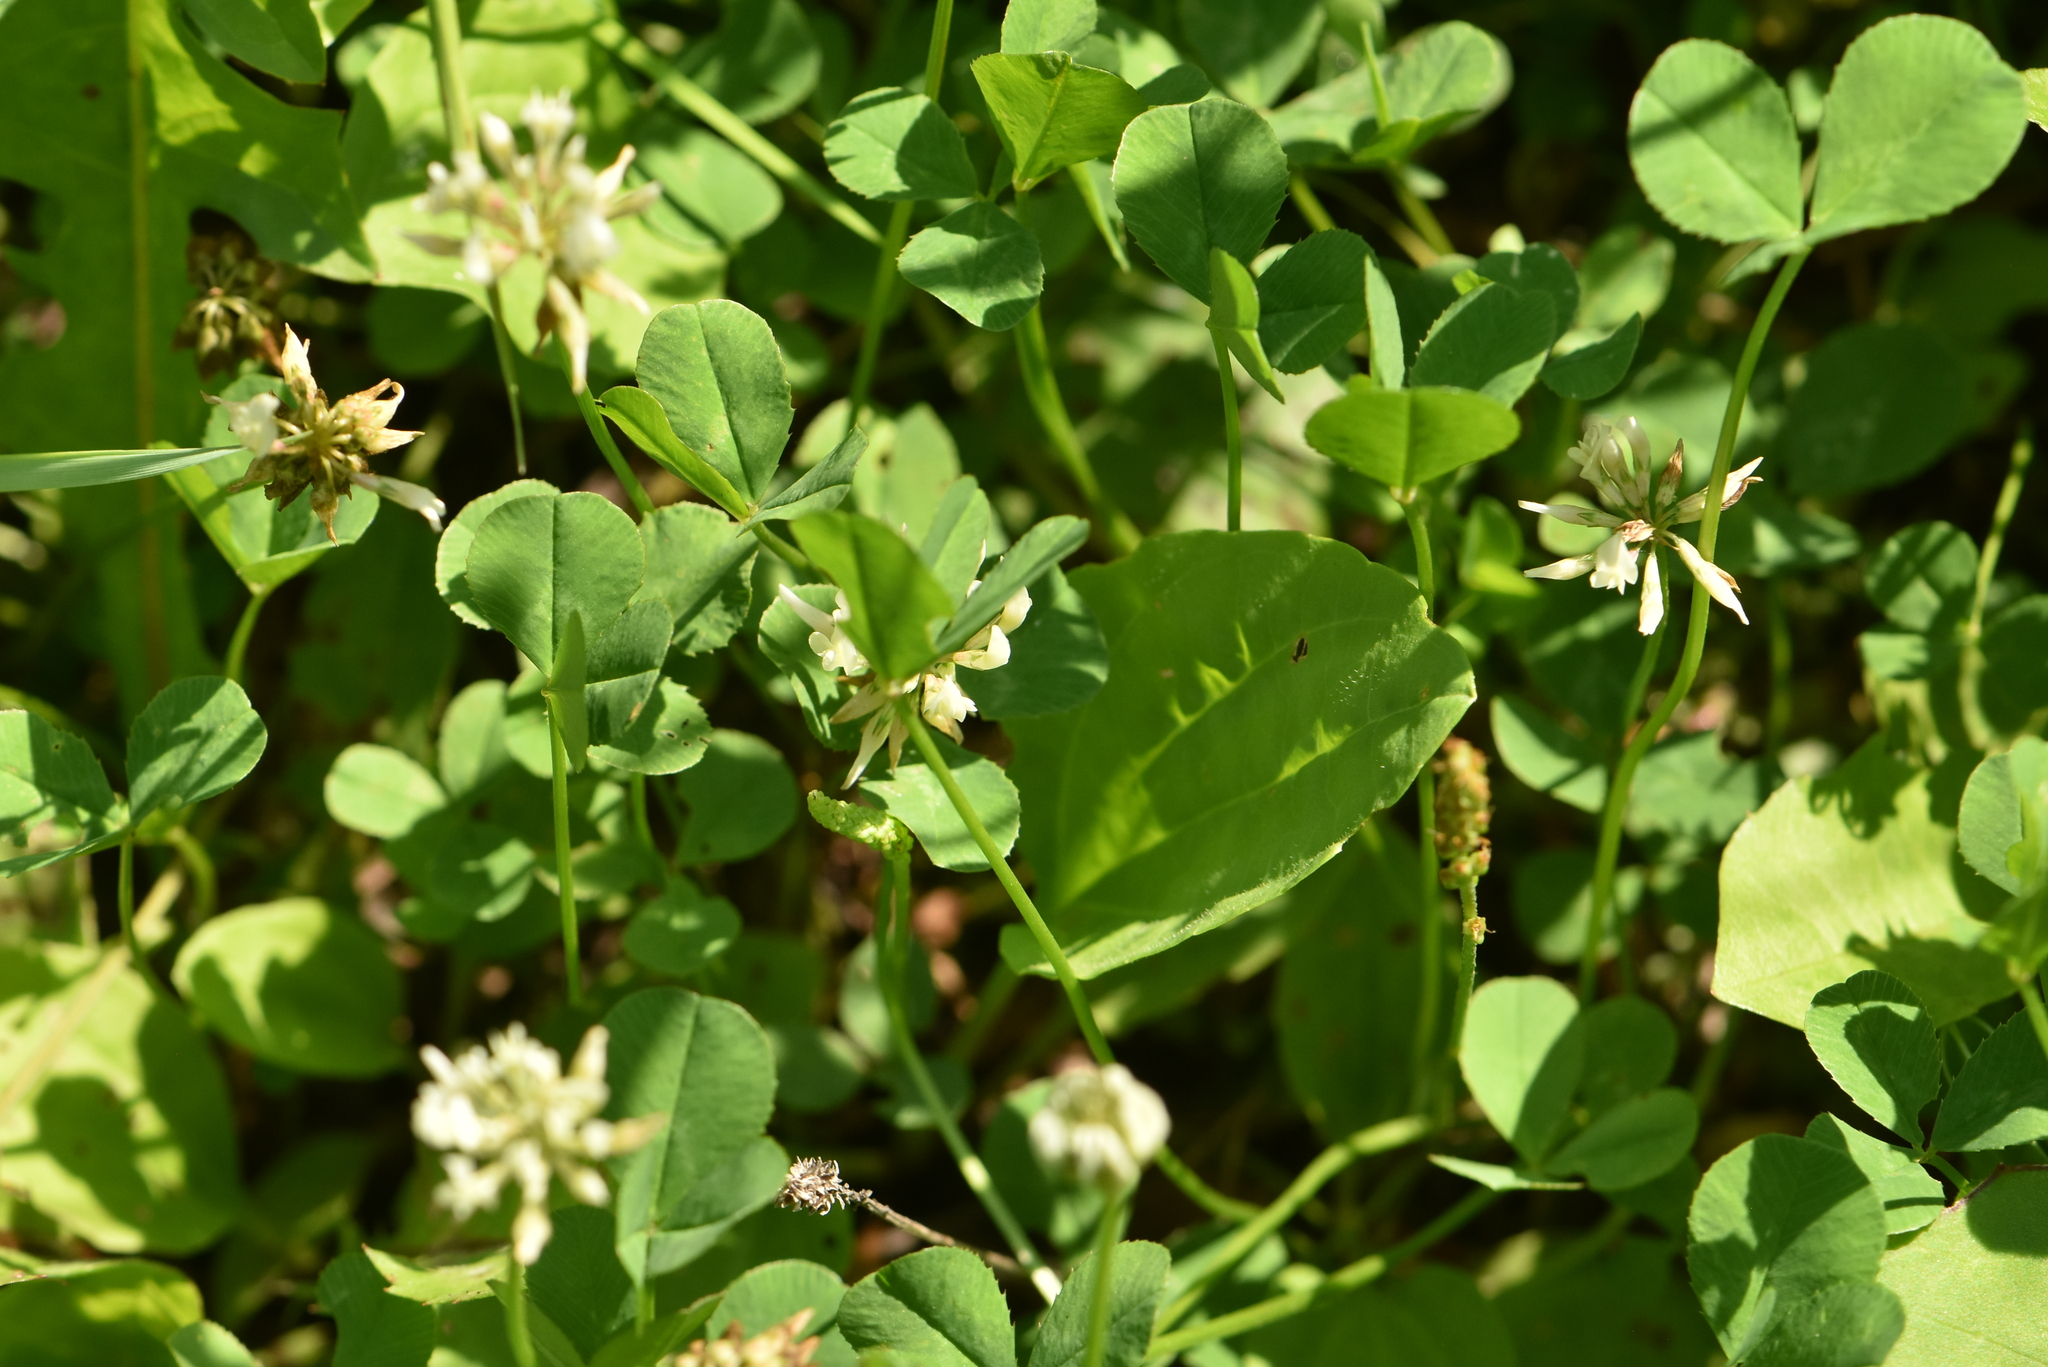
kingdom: Plantae
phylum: Tracheophyta
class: Magnoliopsida
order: Fabales
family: Fabaceae
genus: Trifolium
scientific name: Trifolium repens
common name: White clover
